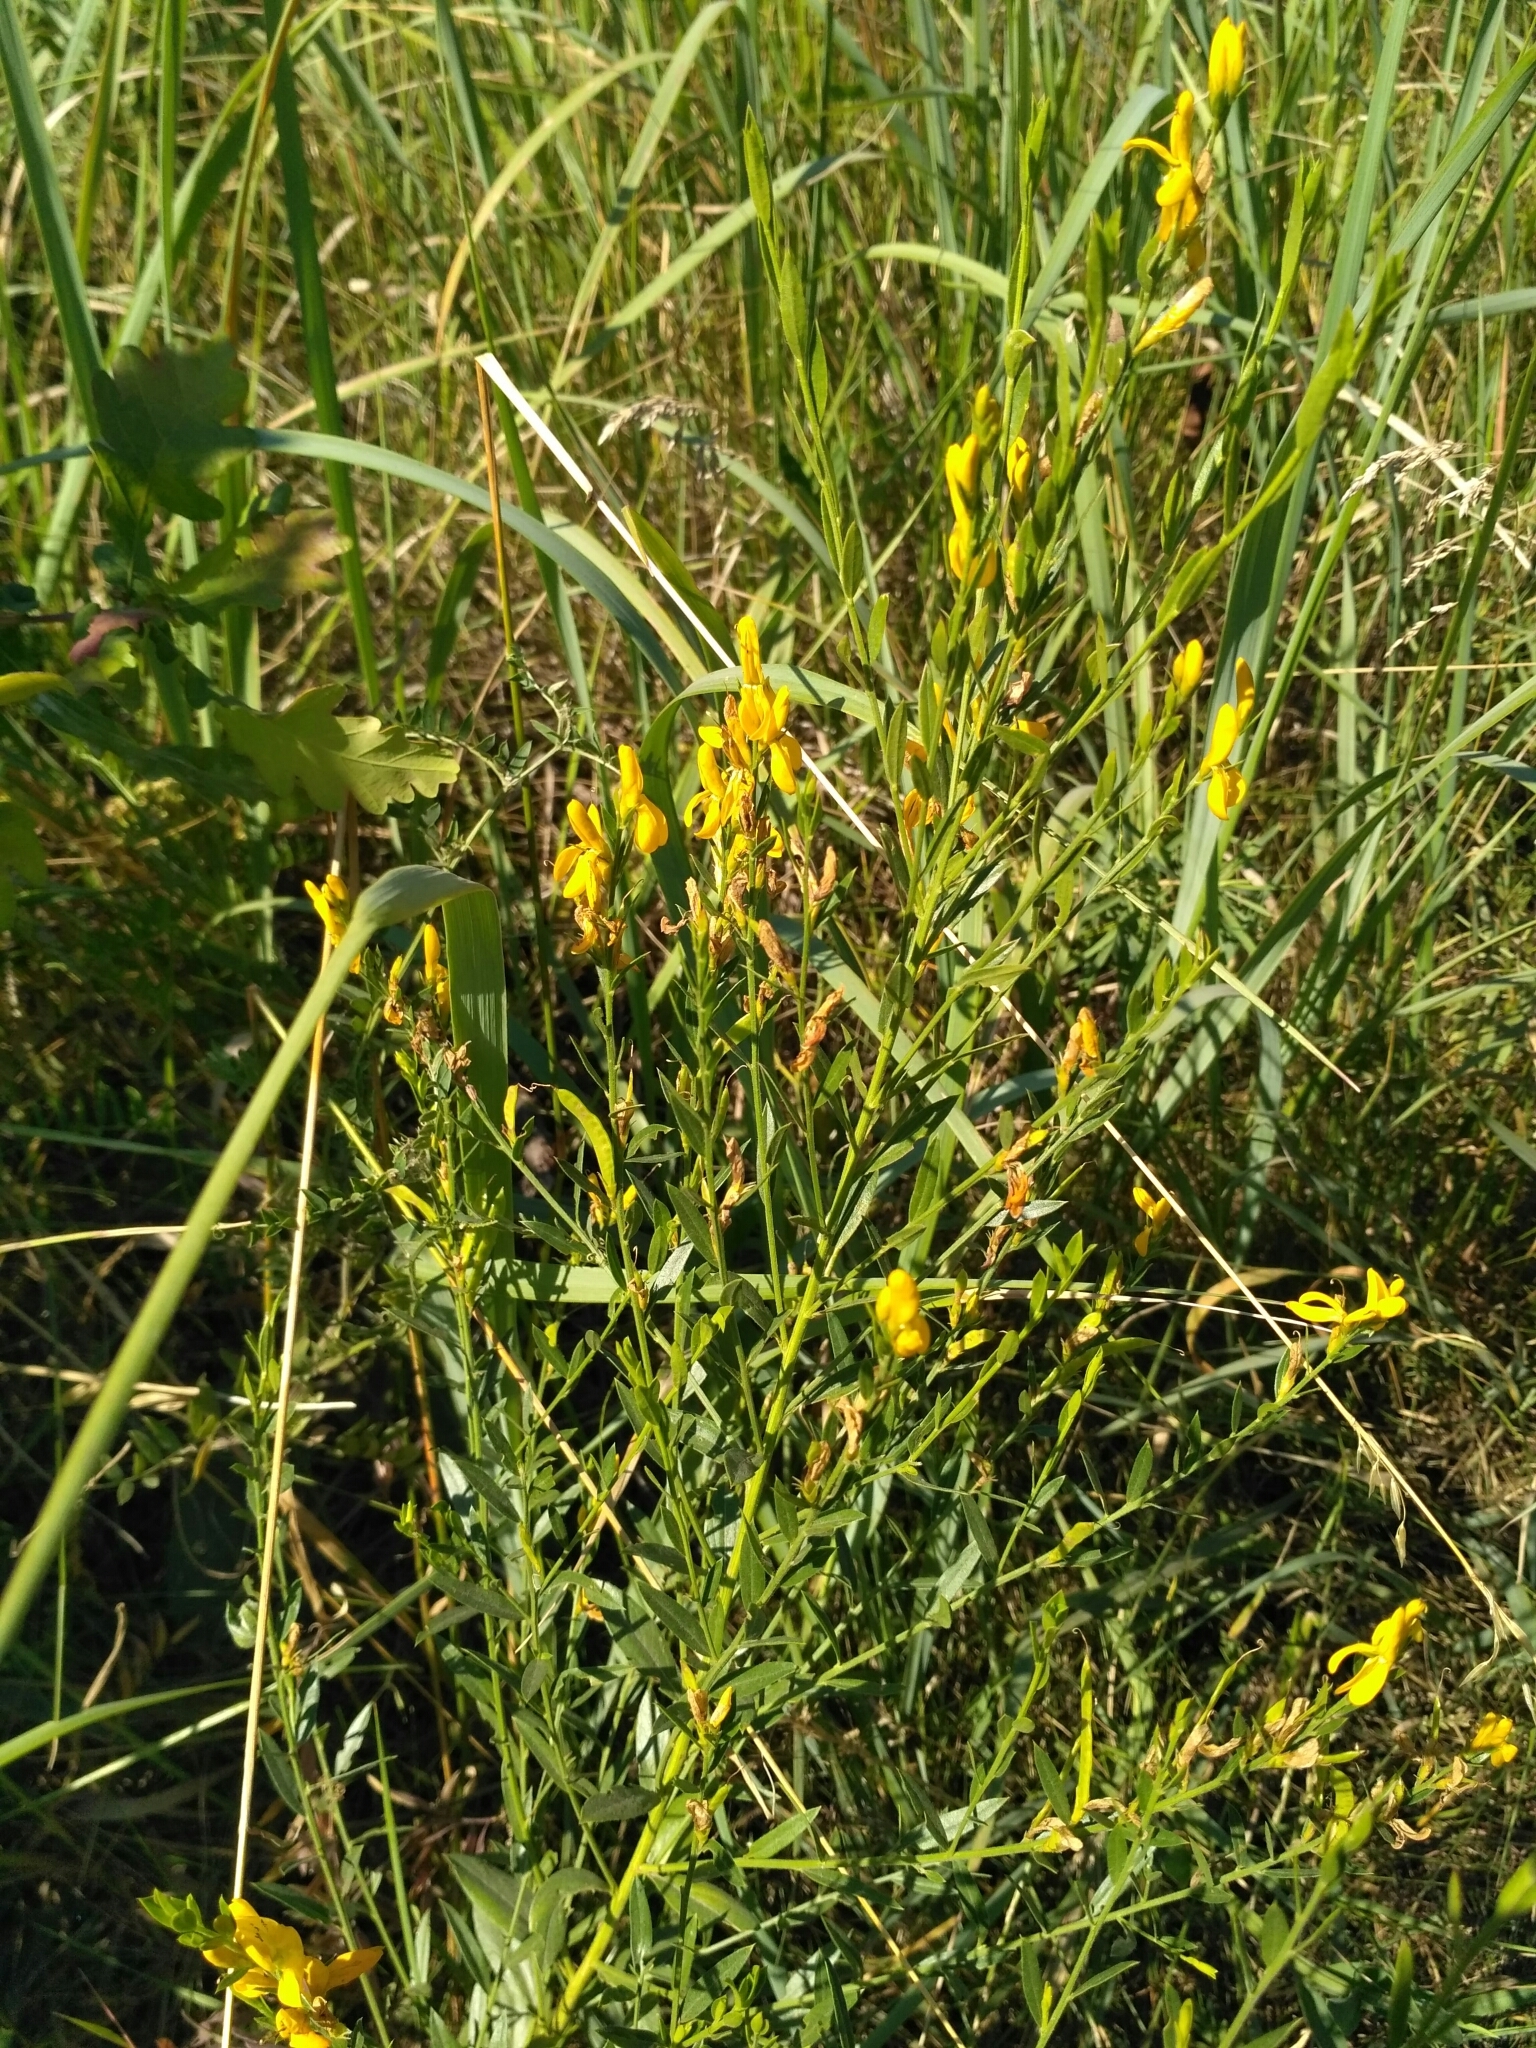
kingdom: Plantae
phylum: Tracheophyta
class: Magnoliopsida
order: Fabales
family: Fabaceae
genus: Genista
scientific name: Genista tinctoria
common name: Dyer's greenweed
